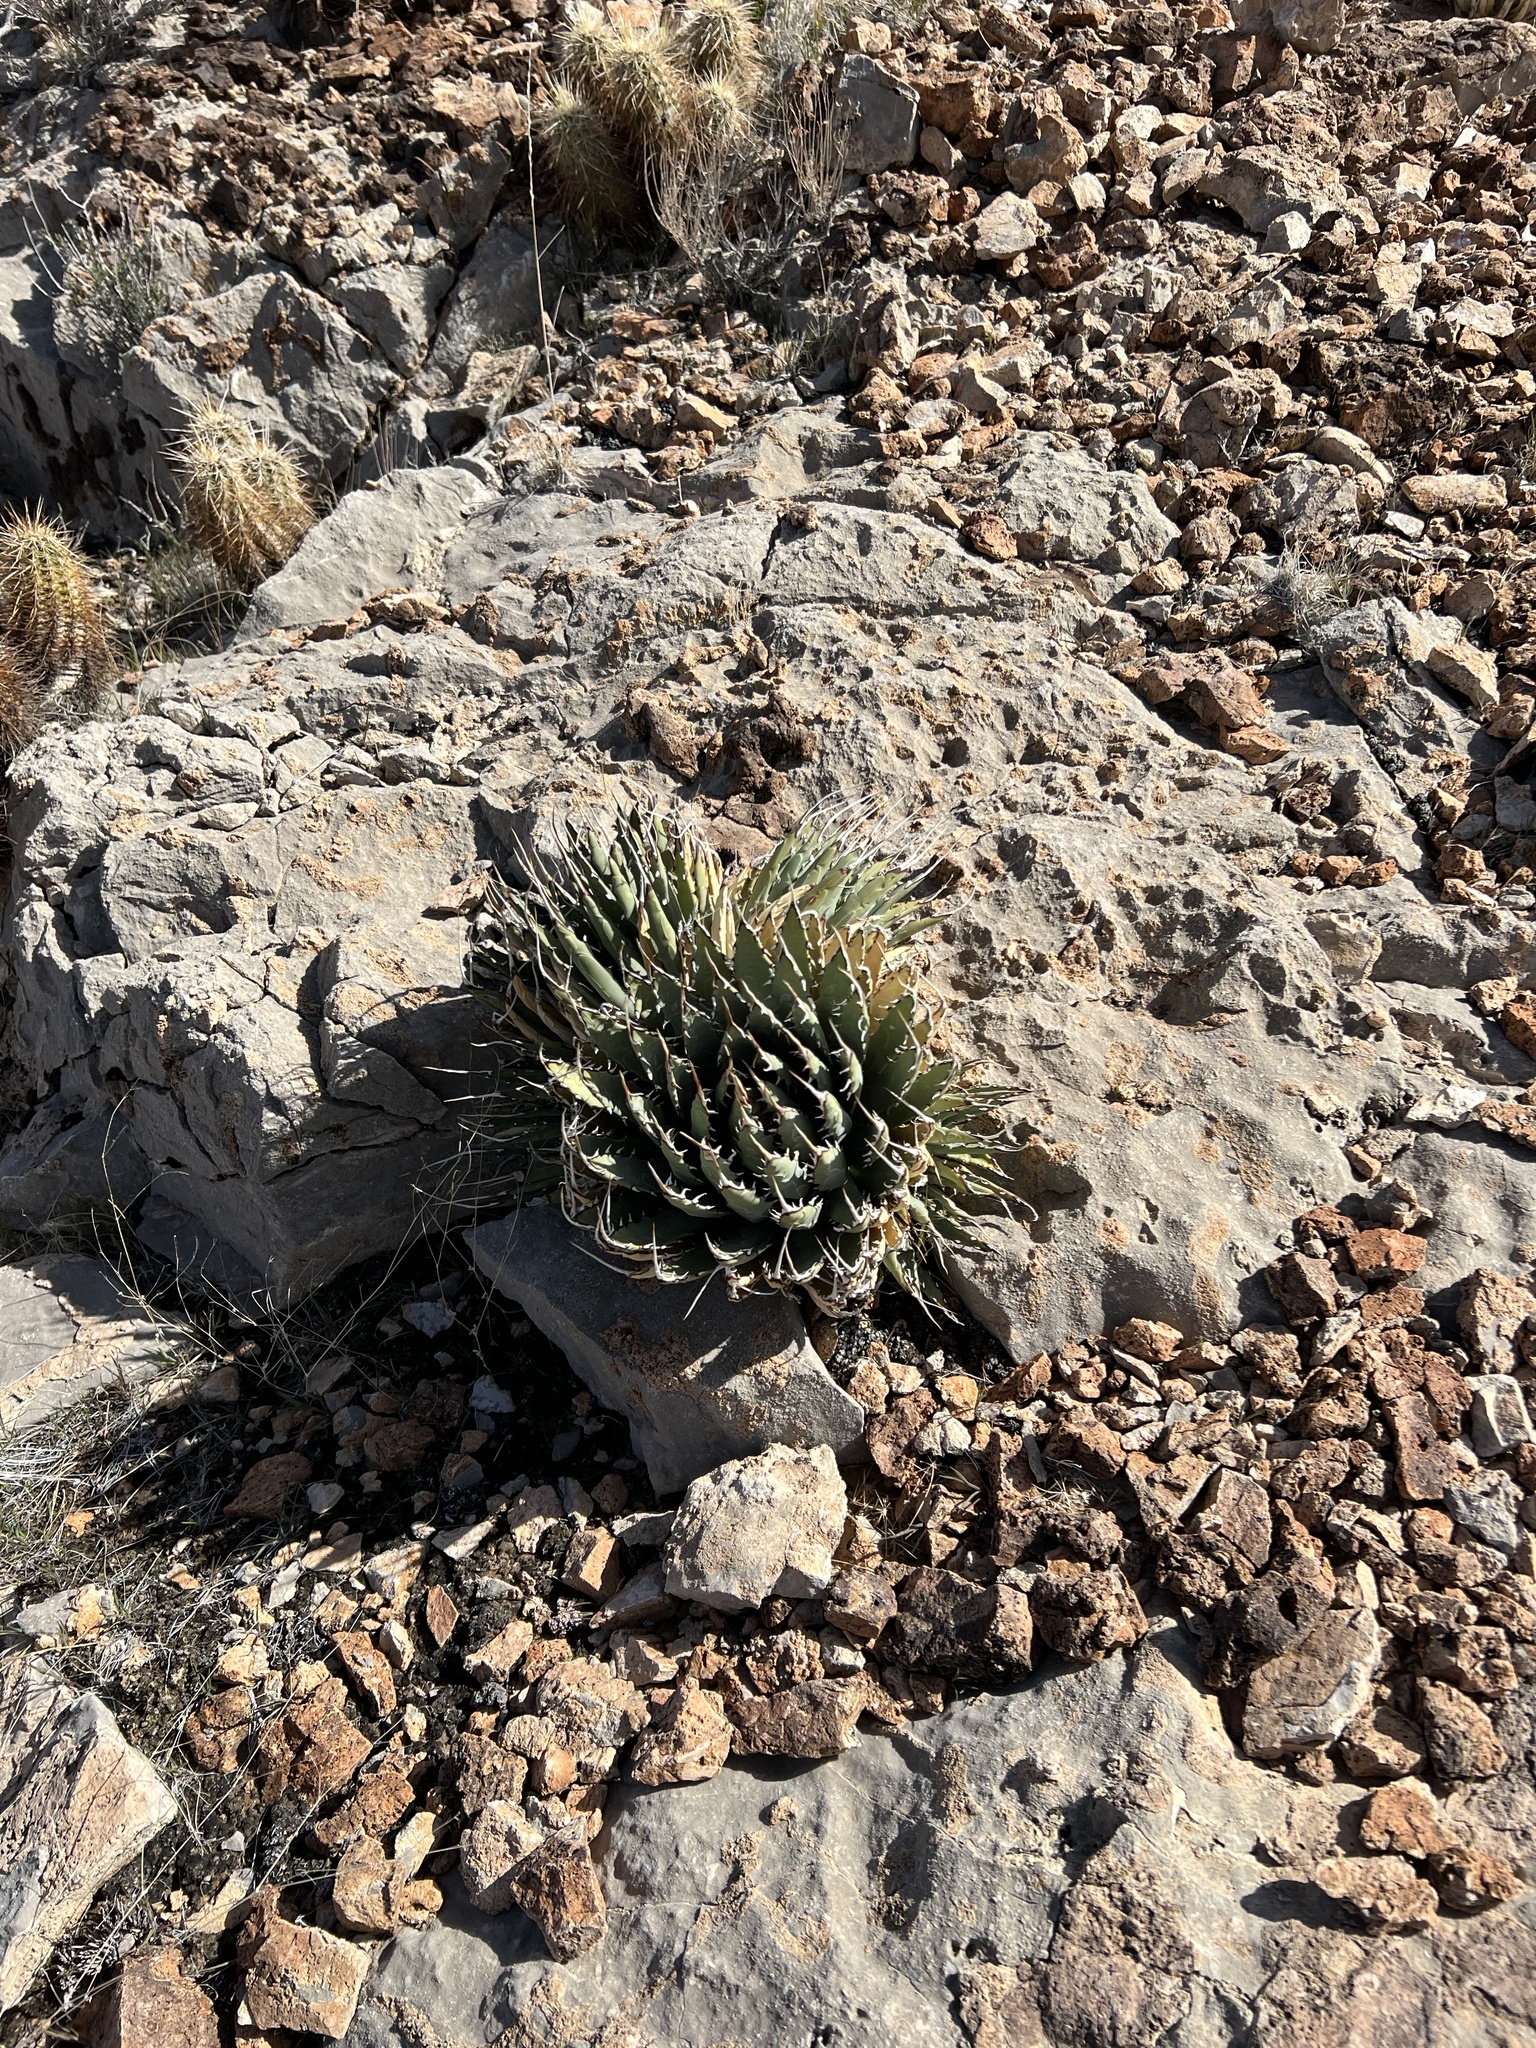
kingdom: Plantae
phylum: Tracheophyta
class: Liliopsida
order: Asparagales
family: Asparagaceae
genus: Agave
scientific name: Agave utahensis
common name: Utah agave
